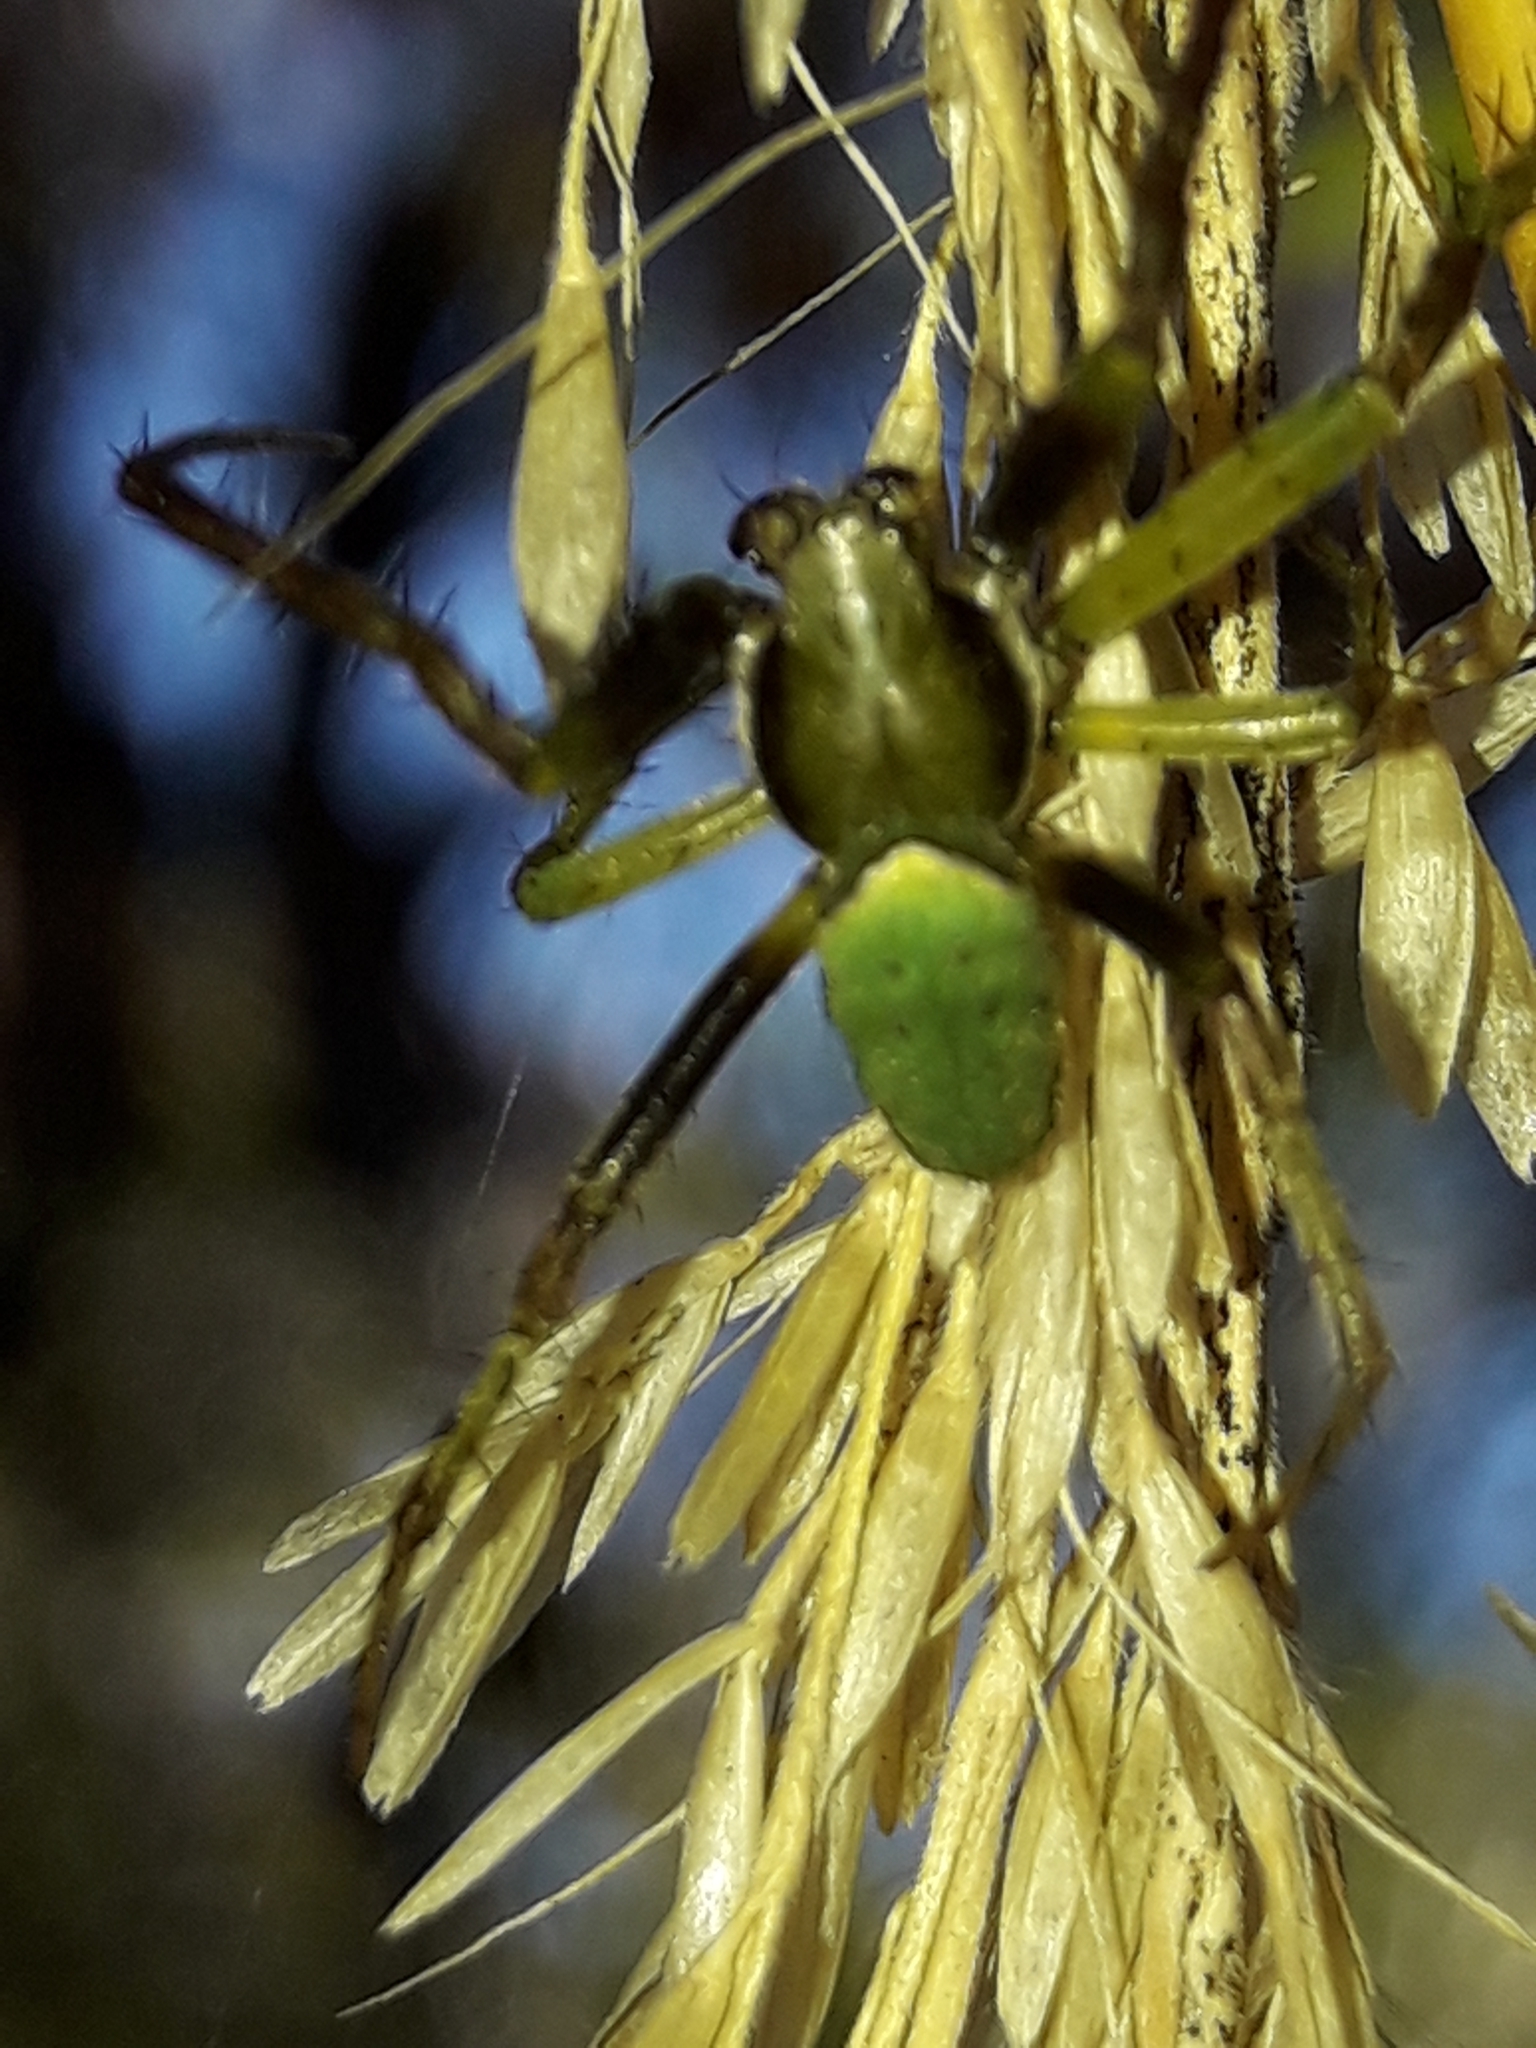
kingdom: Animalia
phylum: Arthropoda
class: Arachnida
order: Araneae
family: Araneidae
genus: Colaranea
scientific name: Colaranea viriditas
